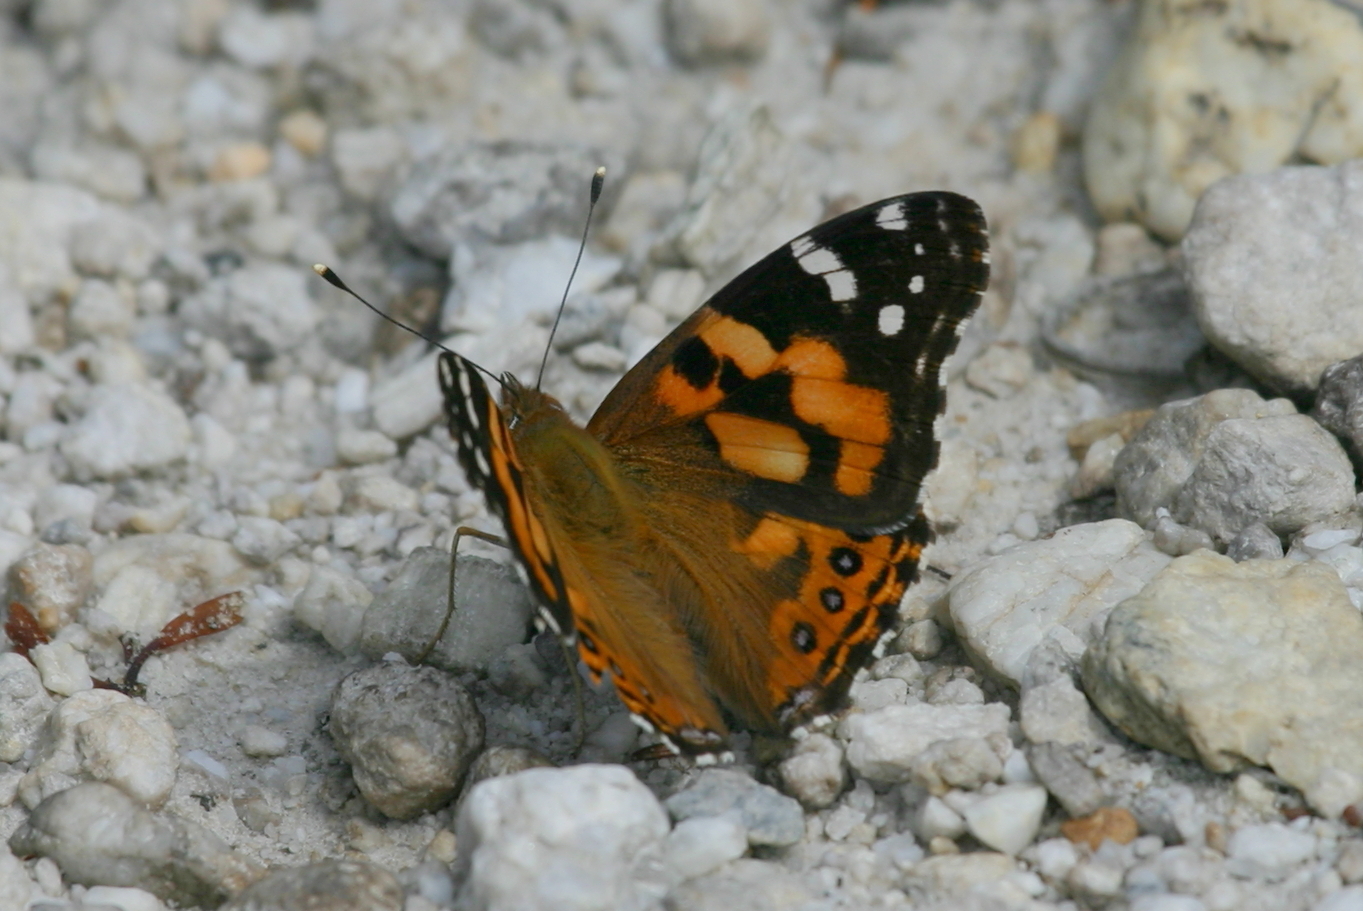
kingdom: Animalia
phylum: Arthropoda
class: Insecta
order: Lepidoptera
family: Nymphalidae
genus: Vanessa
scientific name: Vanessa kershawi
